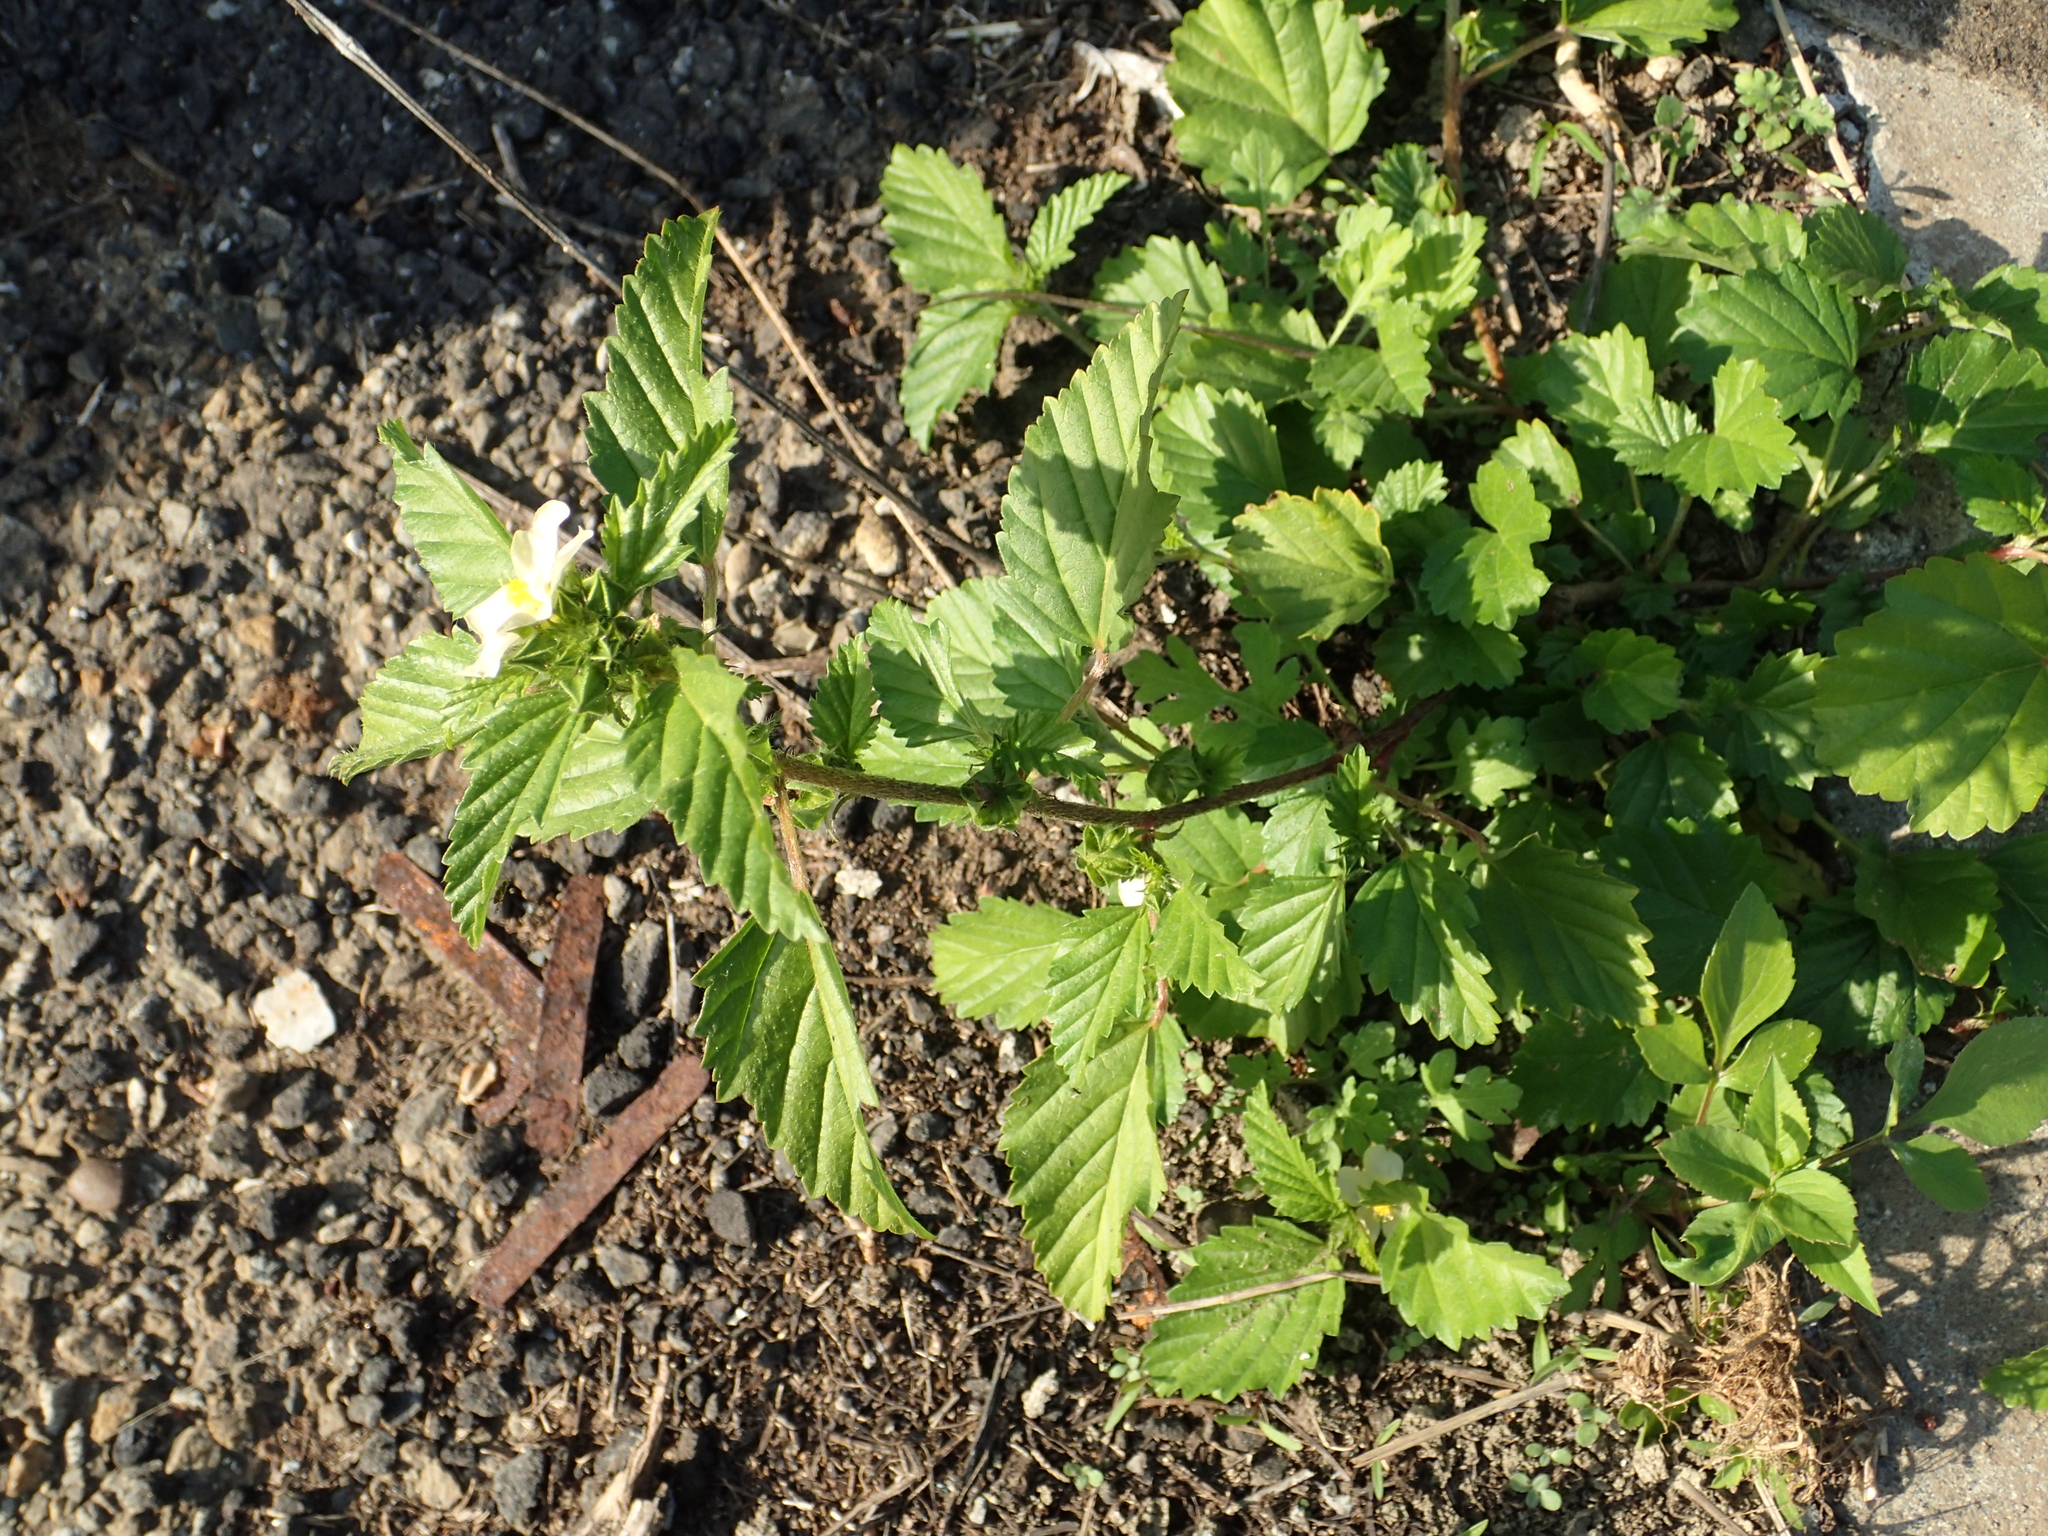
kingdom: Plantae
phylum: Tracheophyta
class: Magnoliopsida
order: Malvales
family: Malvaceae
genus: Malvastrum
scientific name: Malvastrum coromandelianum
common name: Threelobe false mallow
